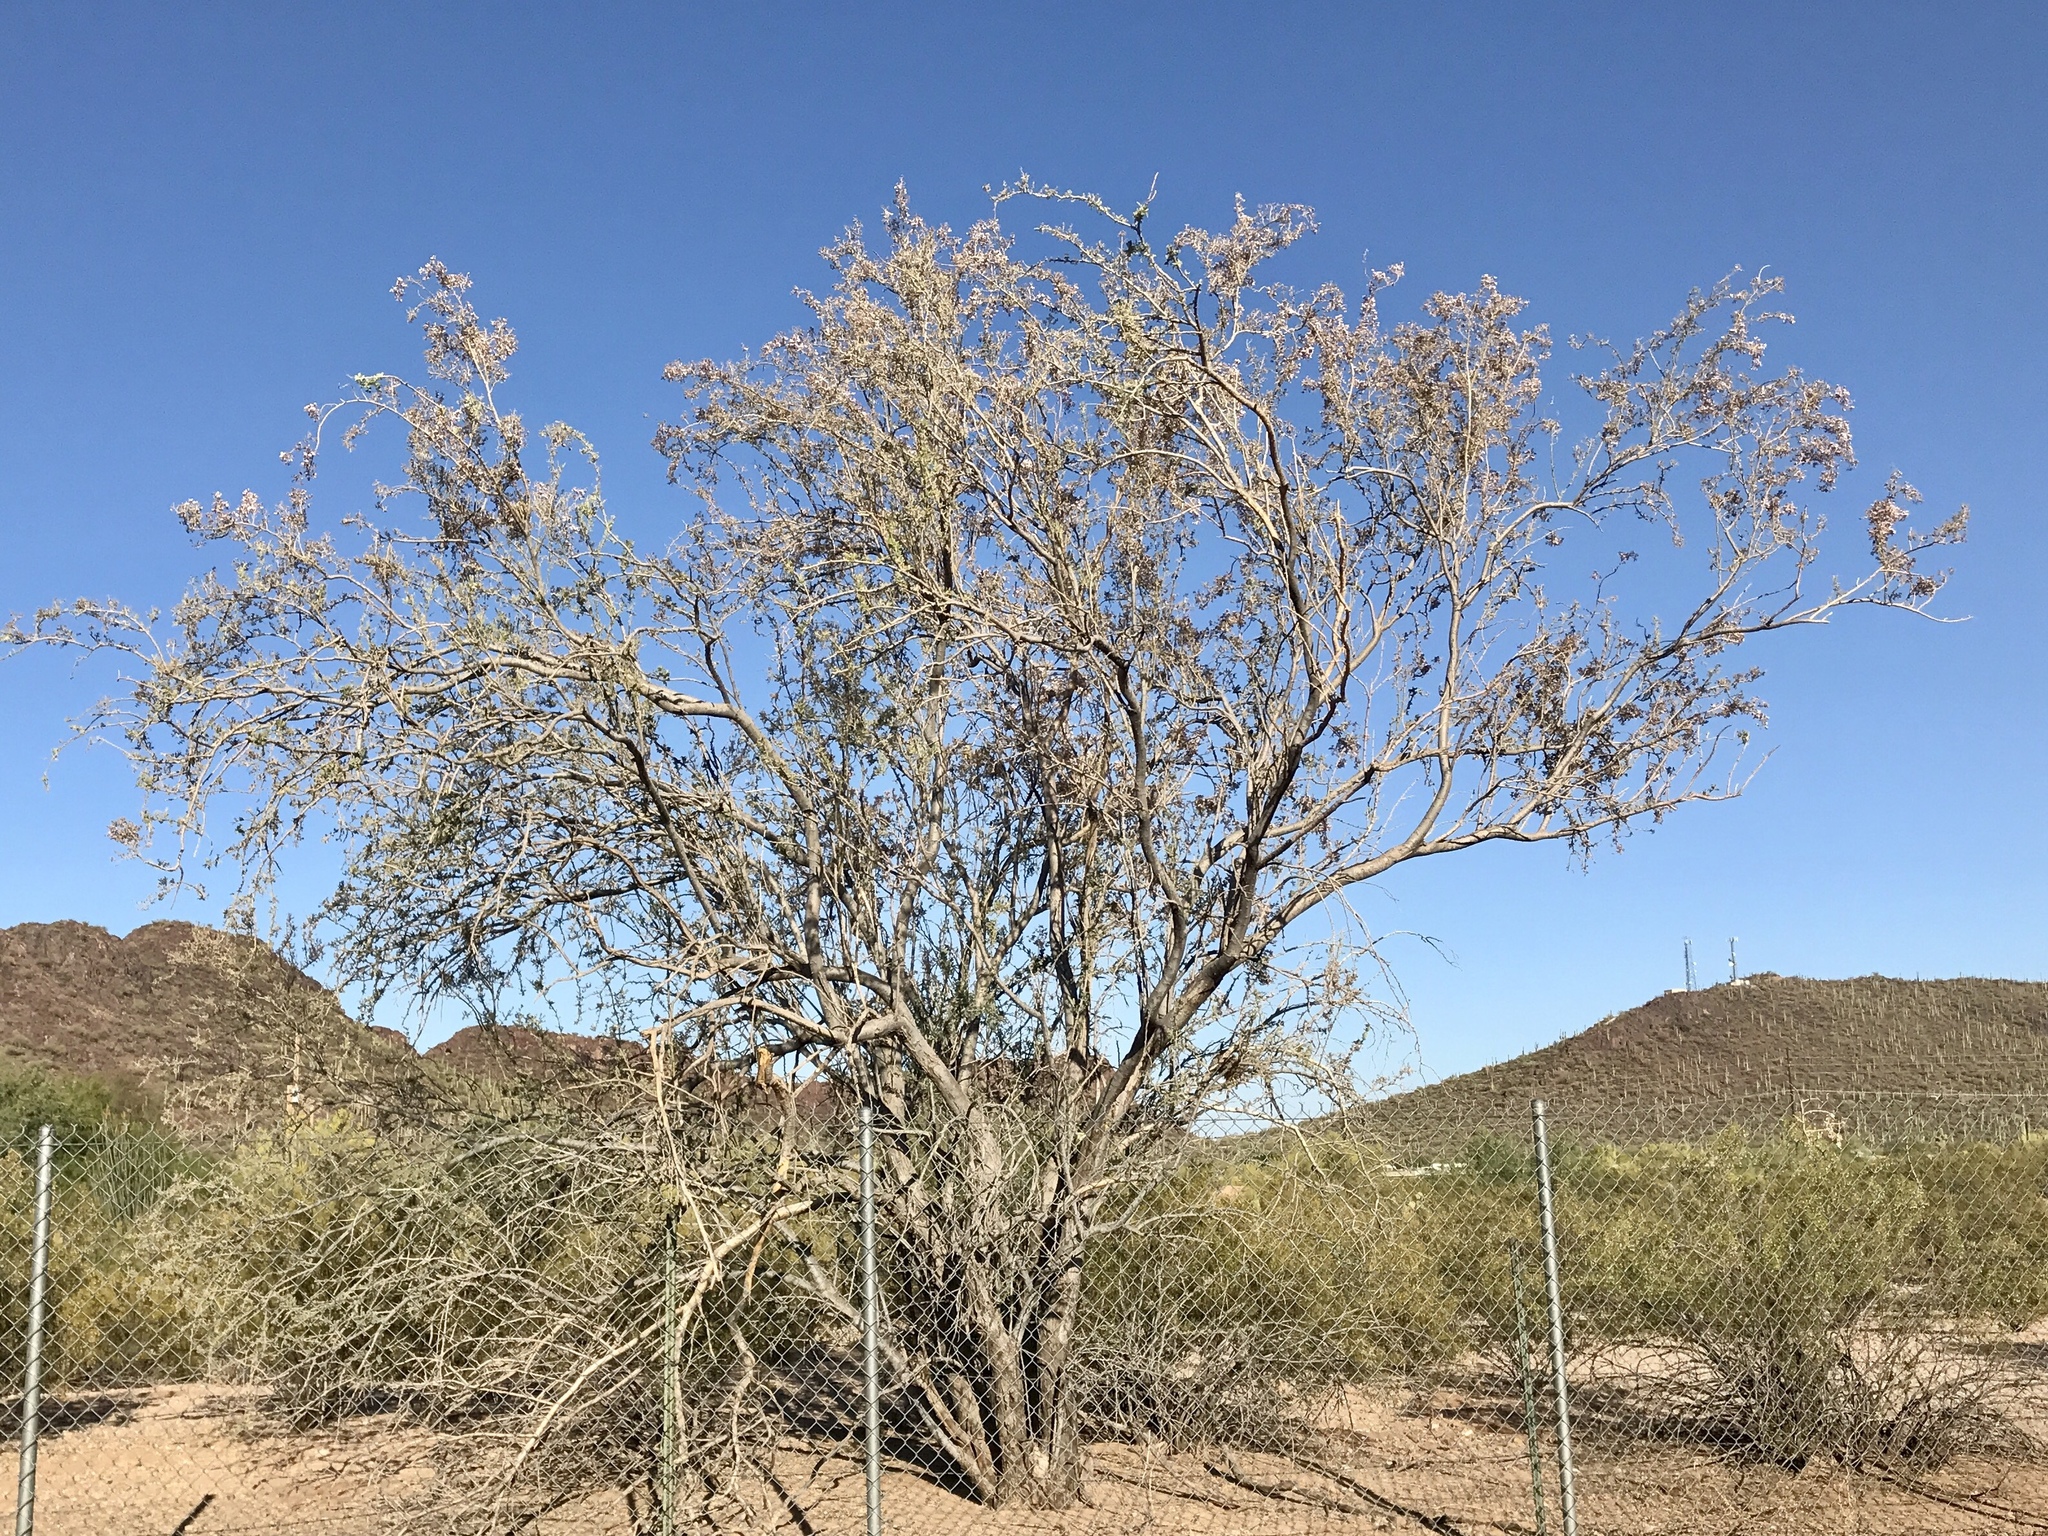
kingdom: Plantae
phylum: Tracheophyta
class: Magnoliopsida
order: Fabales
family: Fabaceae
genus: Olneya
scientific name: Olneya tesota
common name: Desert ironwood
